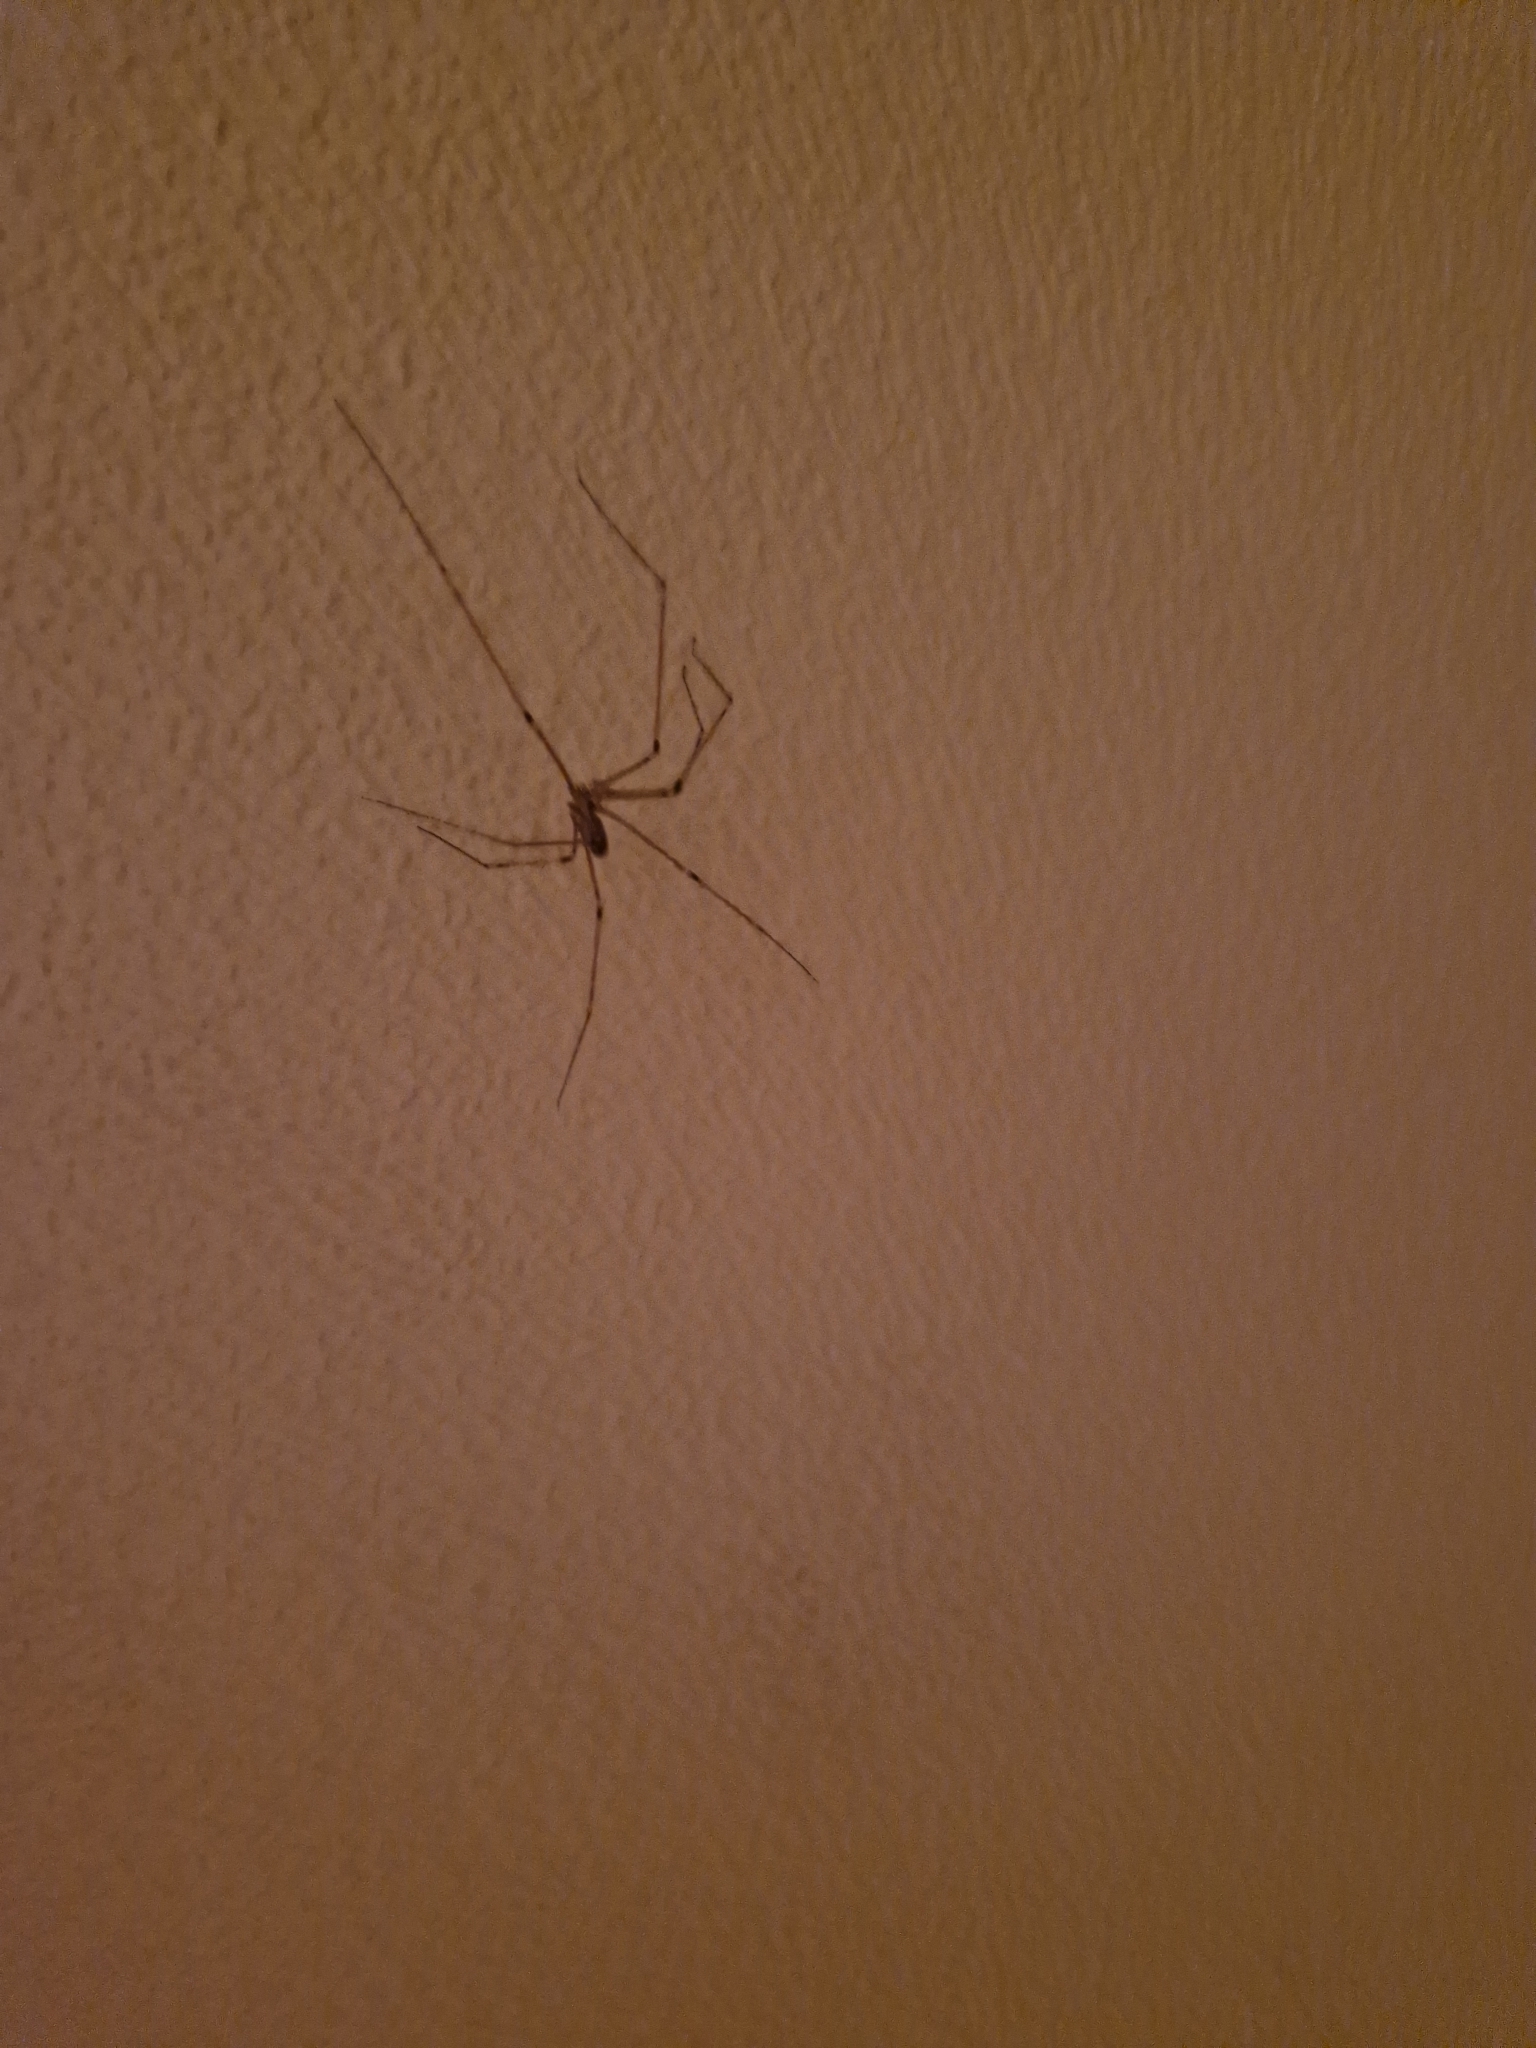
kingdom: Animalia
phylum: Arthropoda
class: Arachnida
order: Araneae
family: Pholcidae
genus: Pholcus
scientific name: Pholcus phalangioides
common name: Longbodied cellar spider
